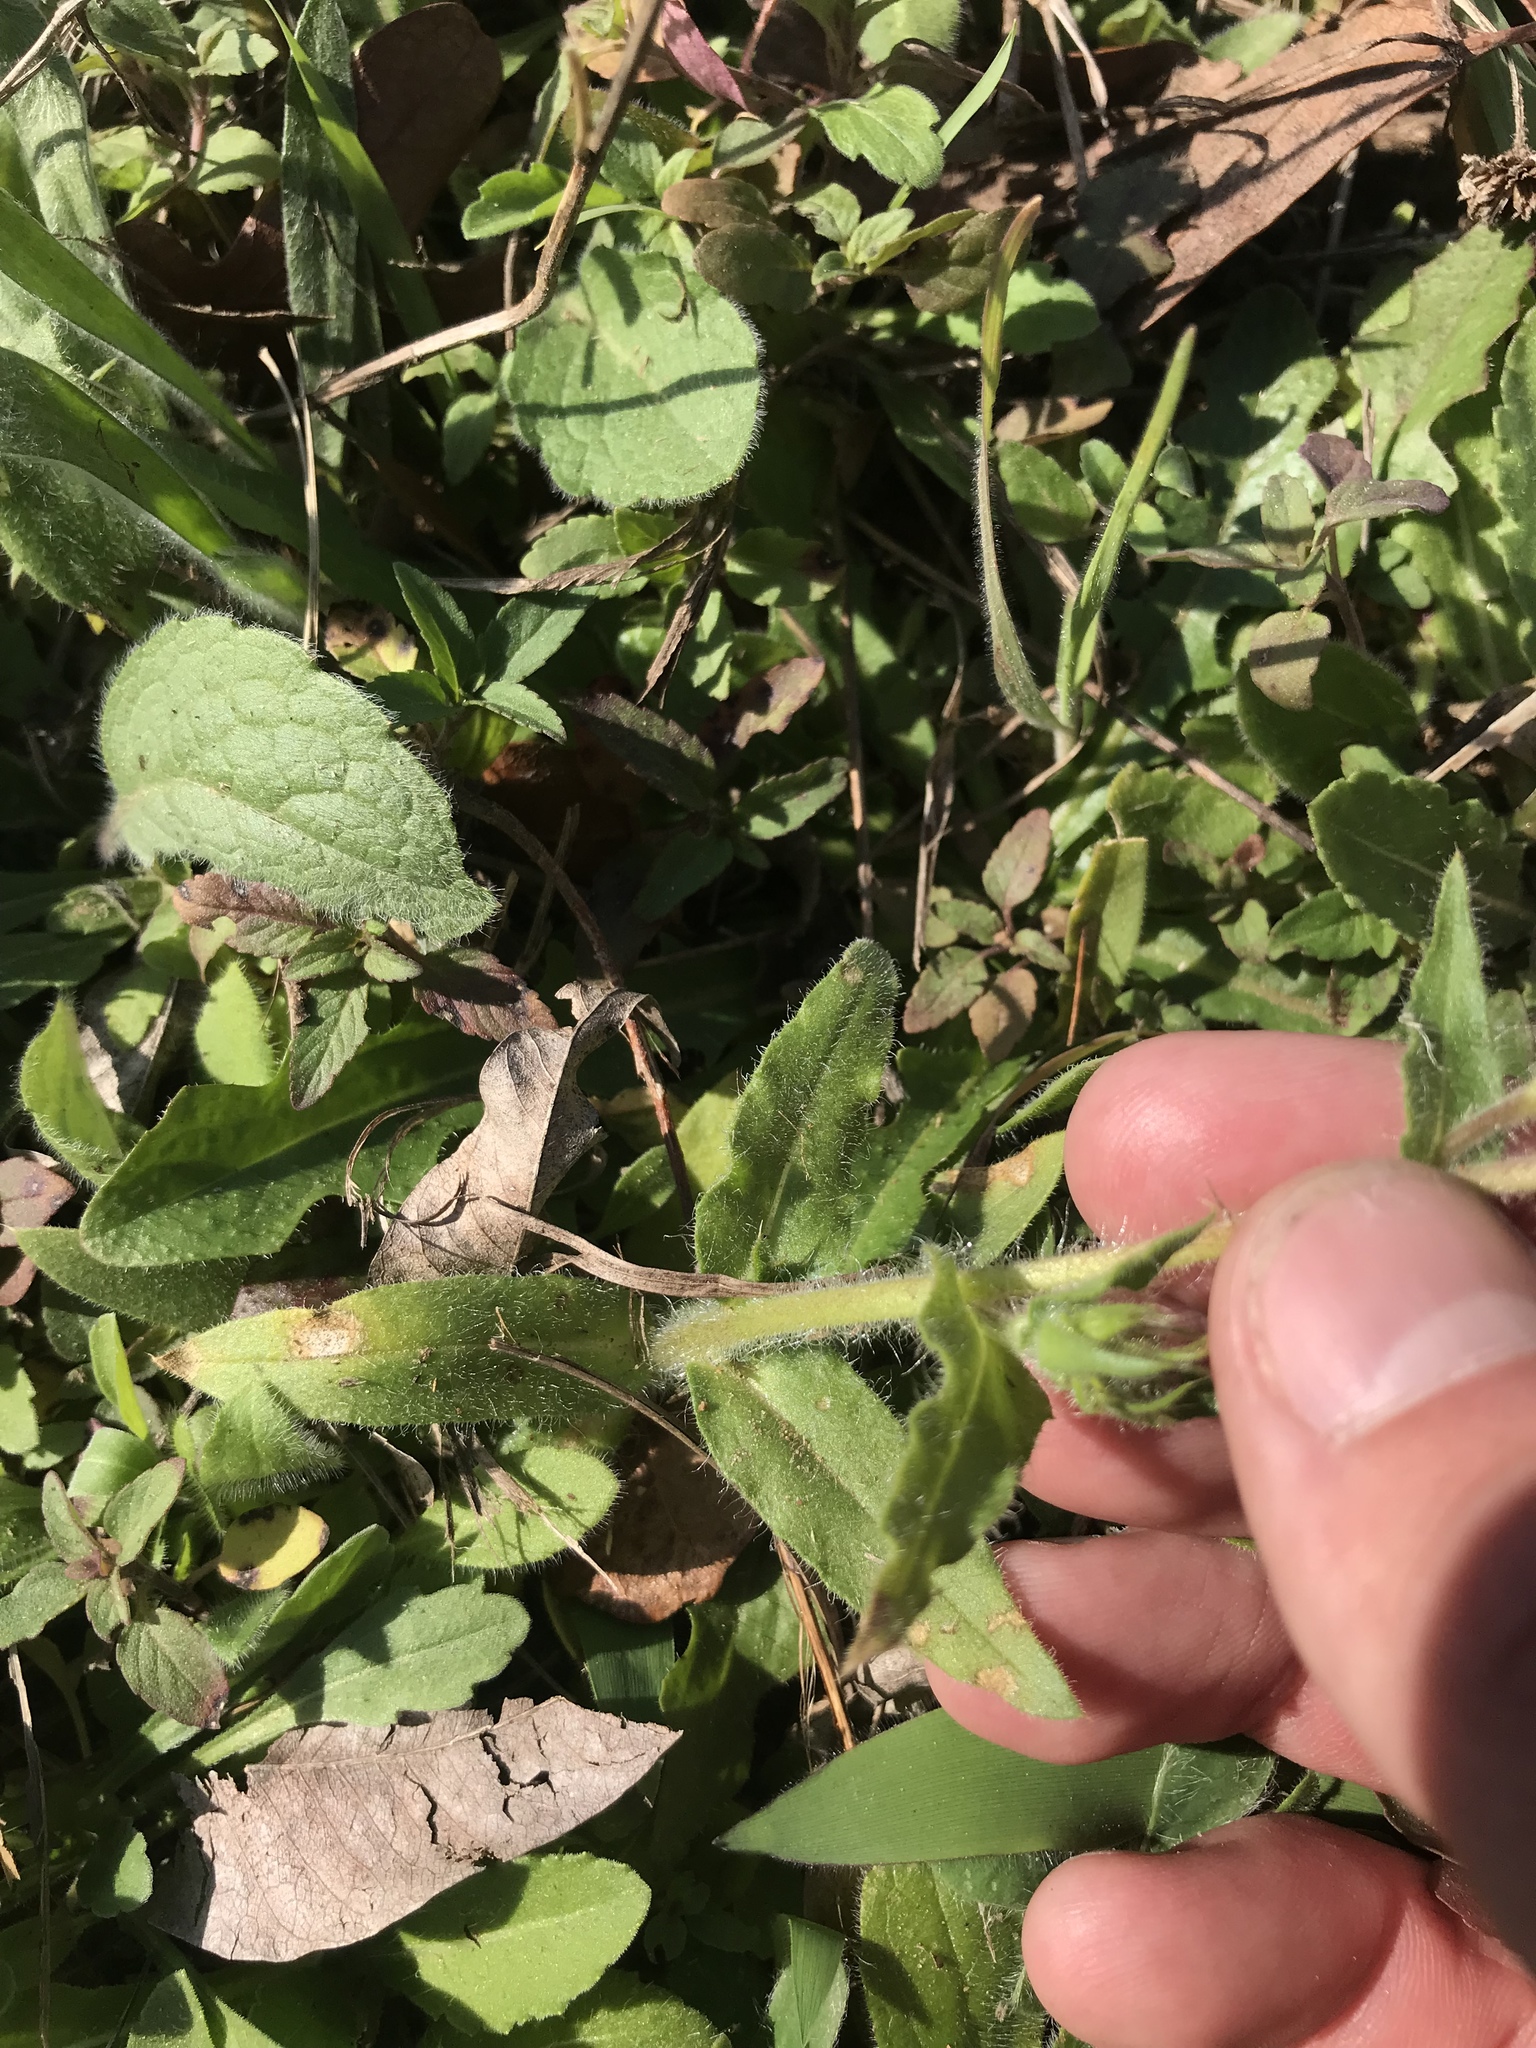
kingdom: Plantae
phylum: Tracheophyta
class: Magnoliopsida
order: Ericales
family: Polemoniaceae
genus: Phlox
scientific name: Phlox drummondii
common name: Drummond's phlox
